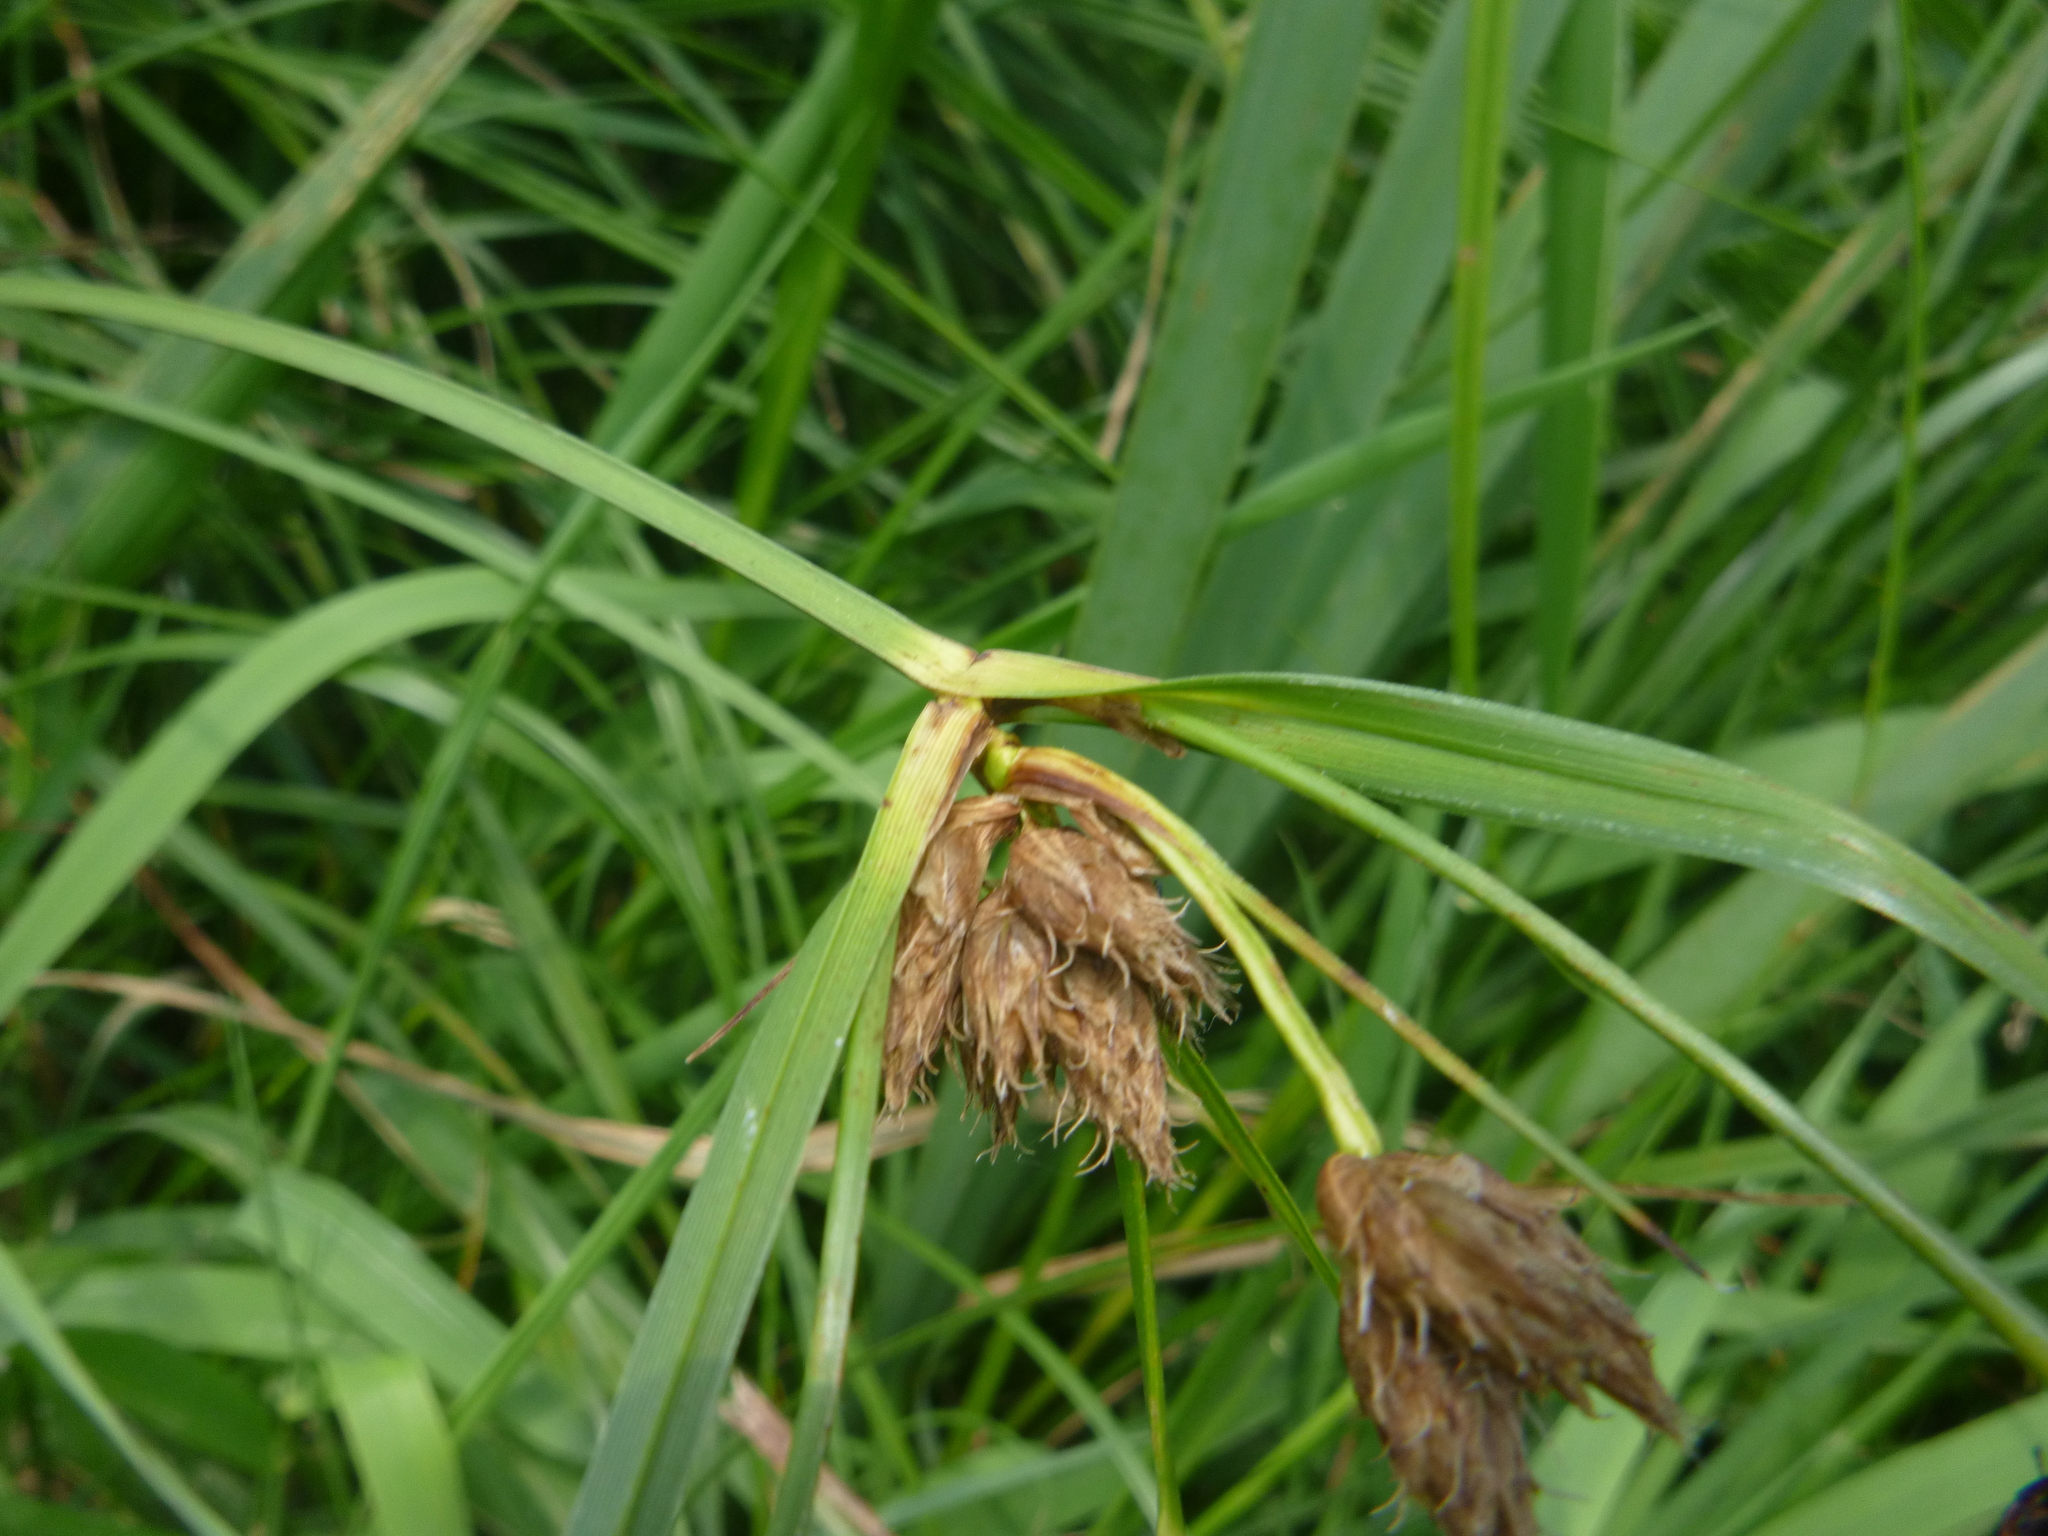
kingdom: Plantae
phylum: Tracheophyta
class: Liliopsida
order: Poales
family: Cyperaceae
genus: Bolboschoenus
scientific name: Bolboschoenus laticarpus
